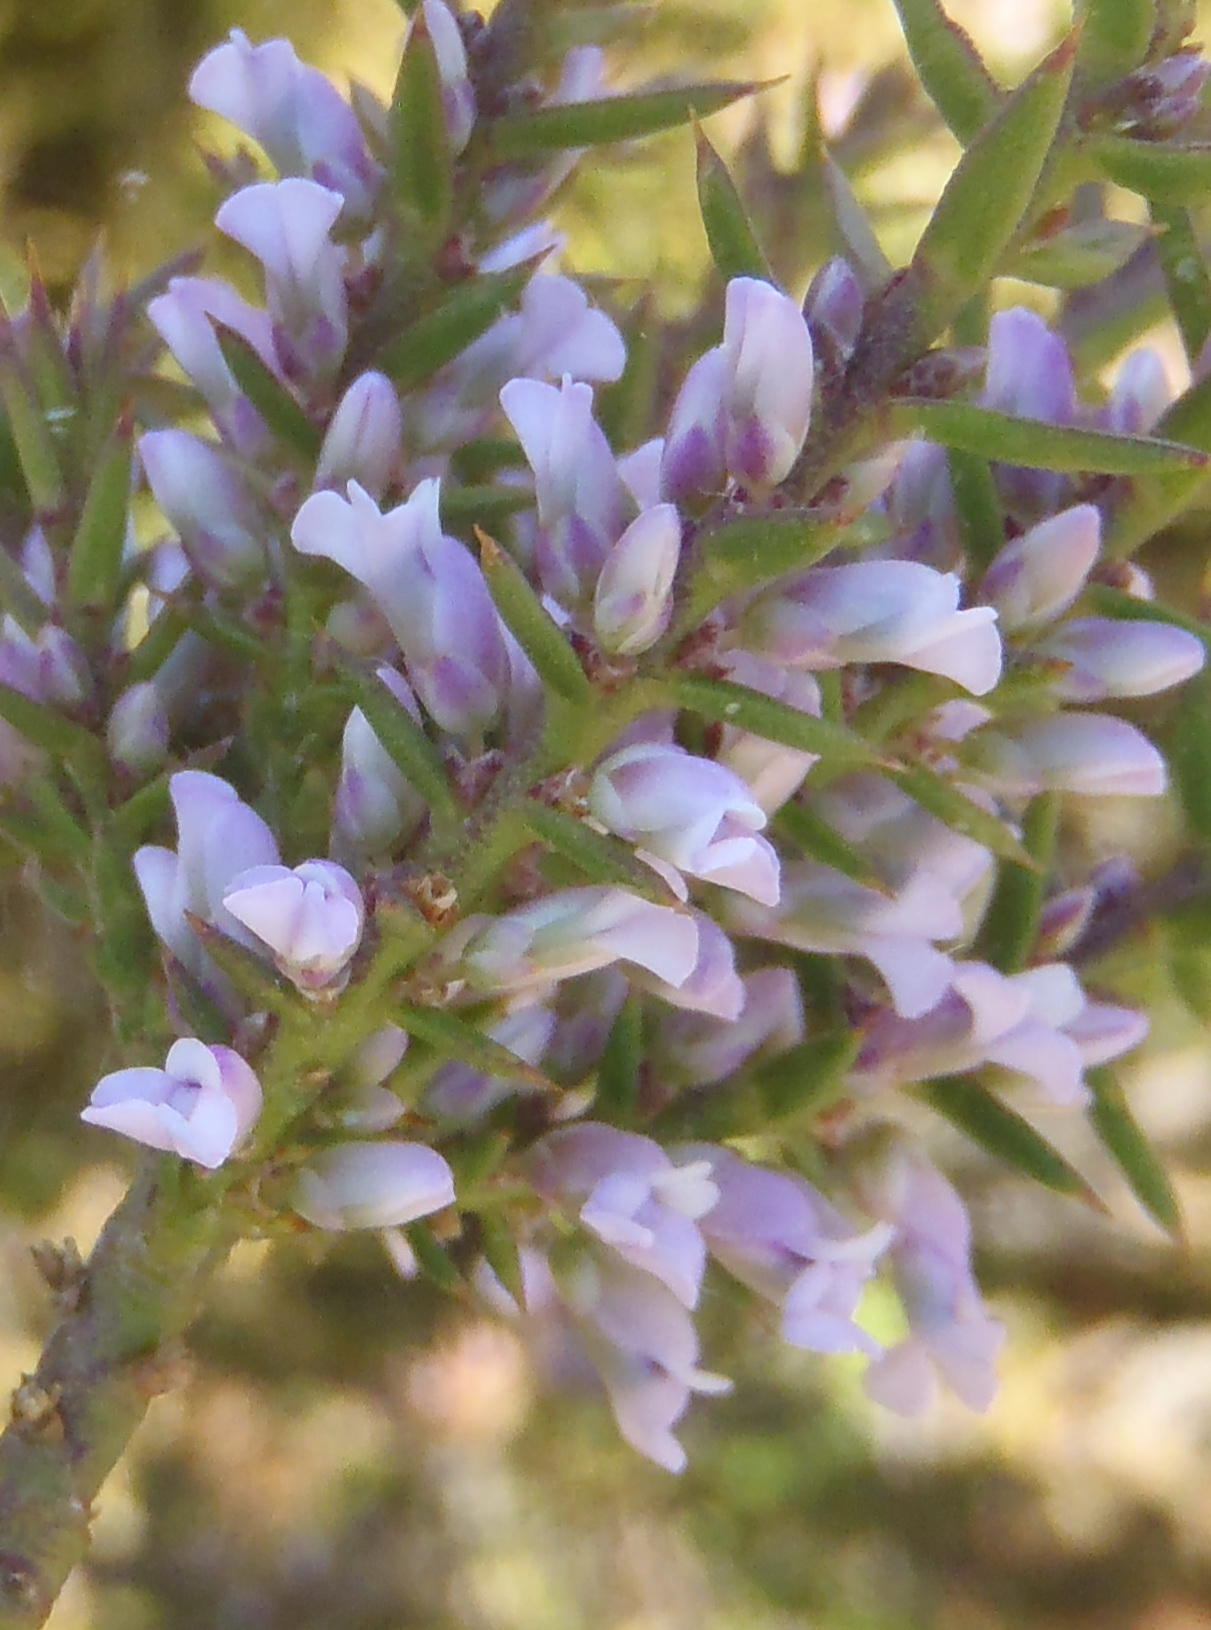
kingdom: Plantae
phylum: Tracheophyta
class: Magnoliopsida
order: Fabales
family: Polygalaceae
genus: Muraltia
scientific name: Muraltia juniperifolia
